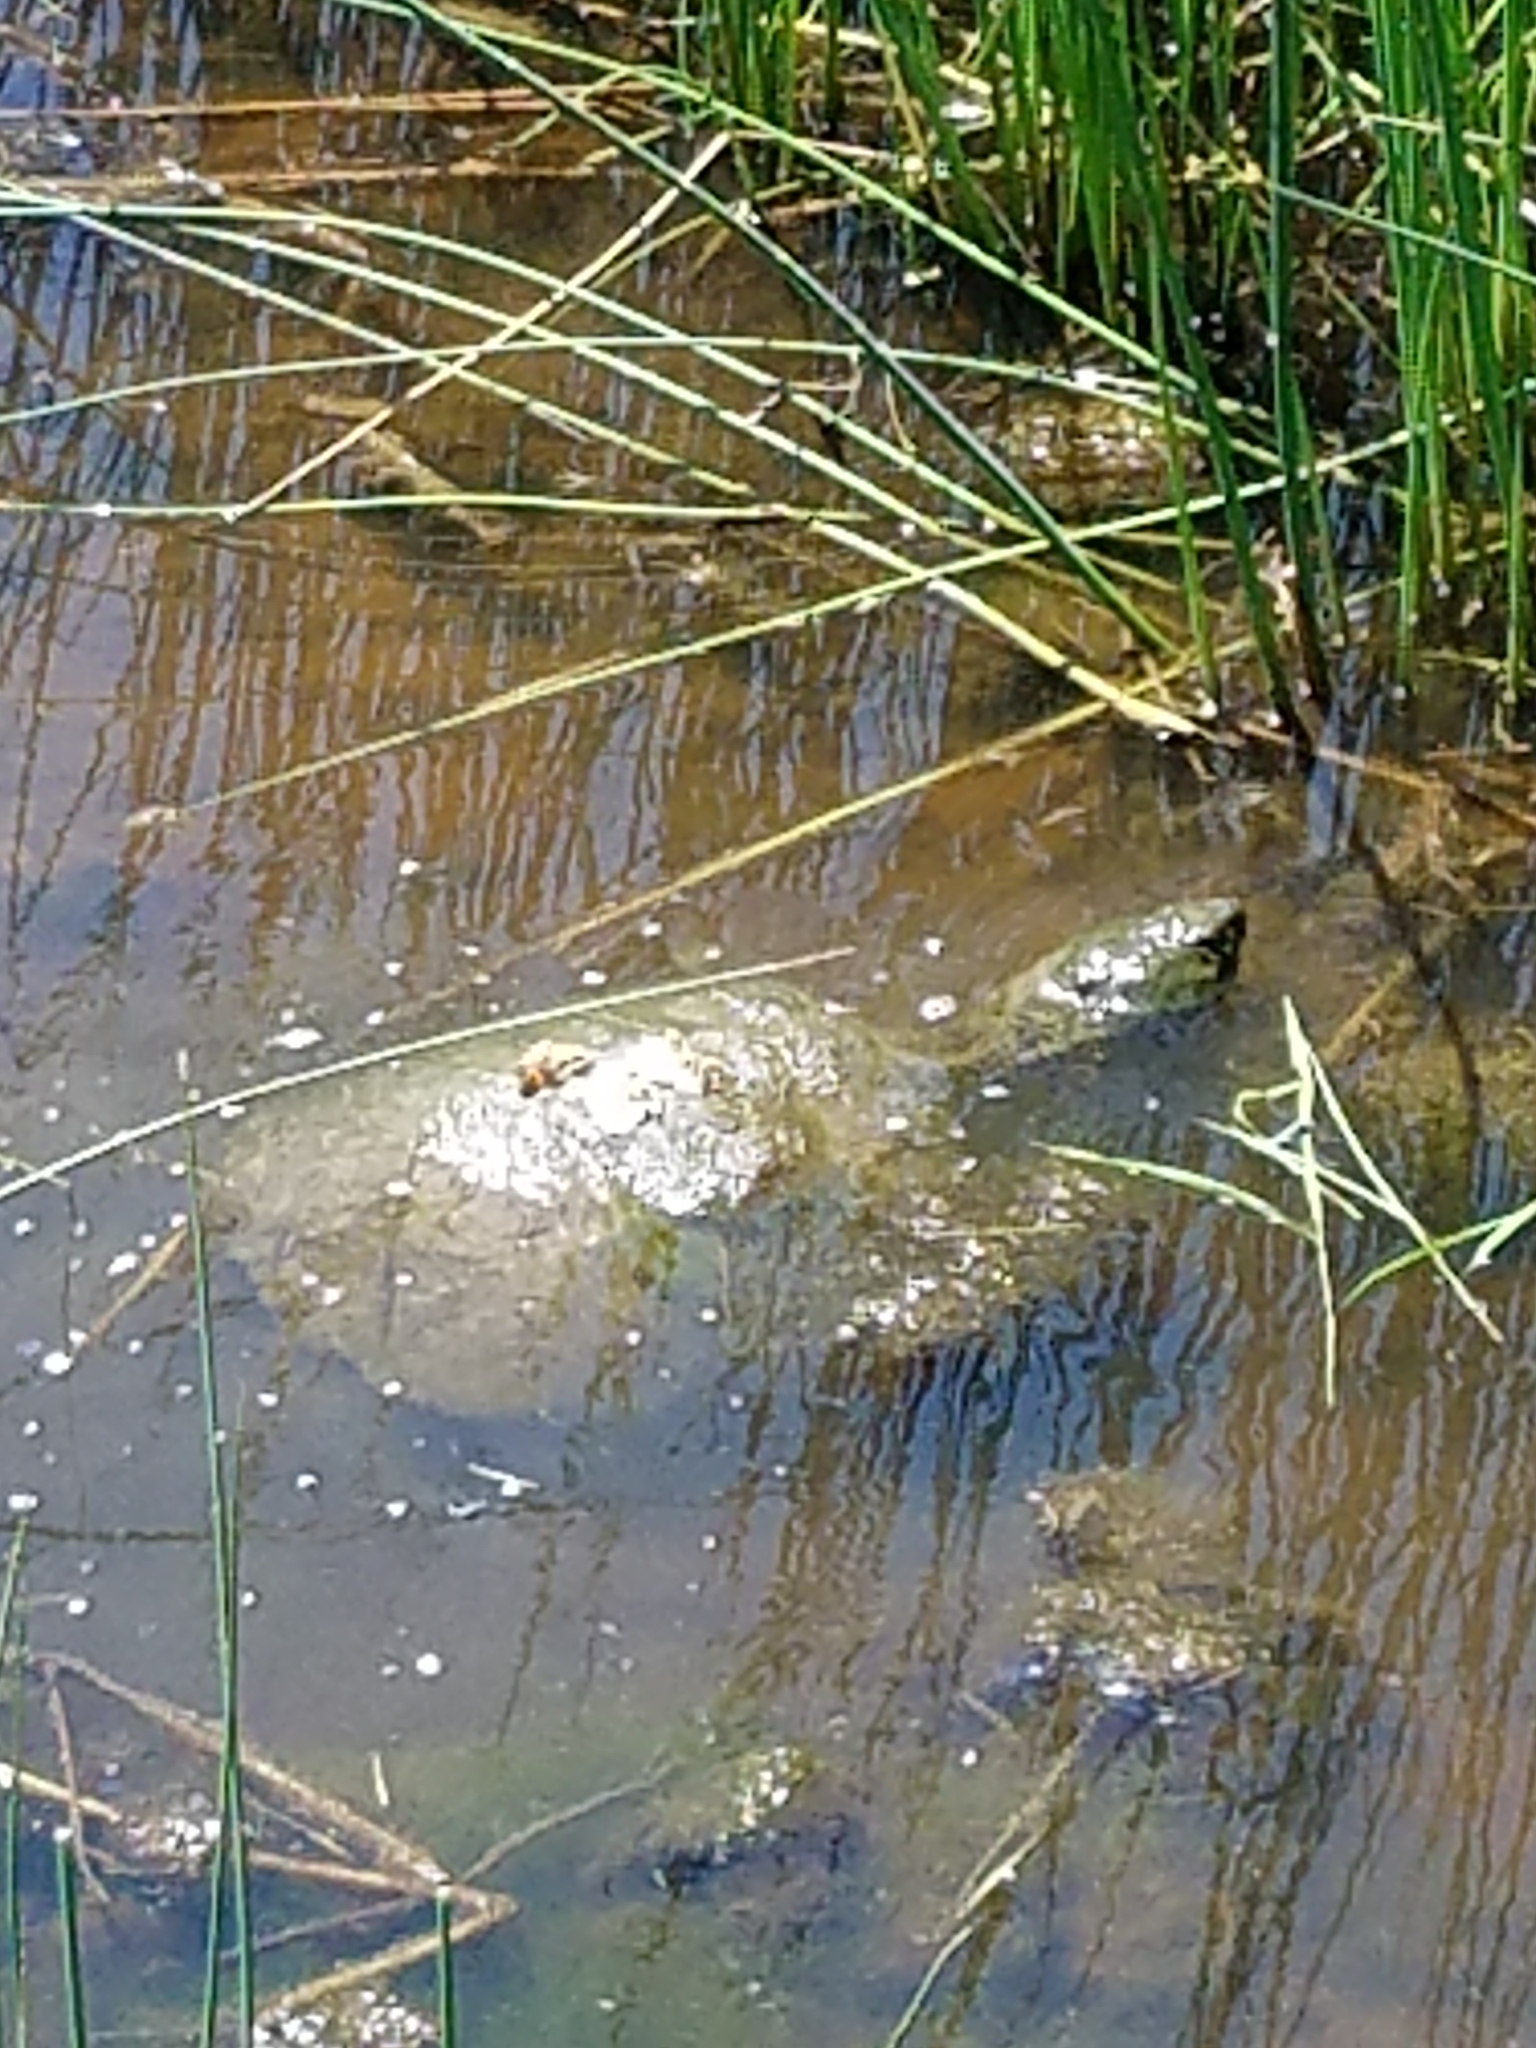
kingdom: Animalia
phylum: Chordata
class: Testudines
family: Chelydridae
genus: Chelydra
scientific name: Chelydra serpentina
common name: Common snapping turtle
